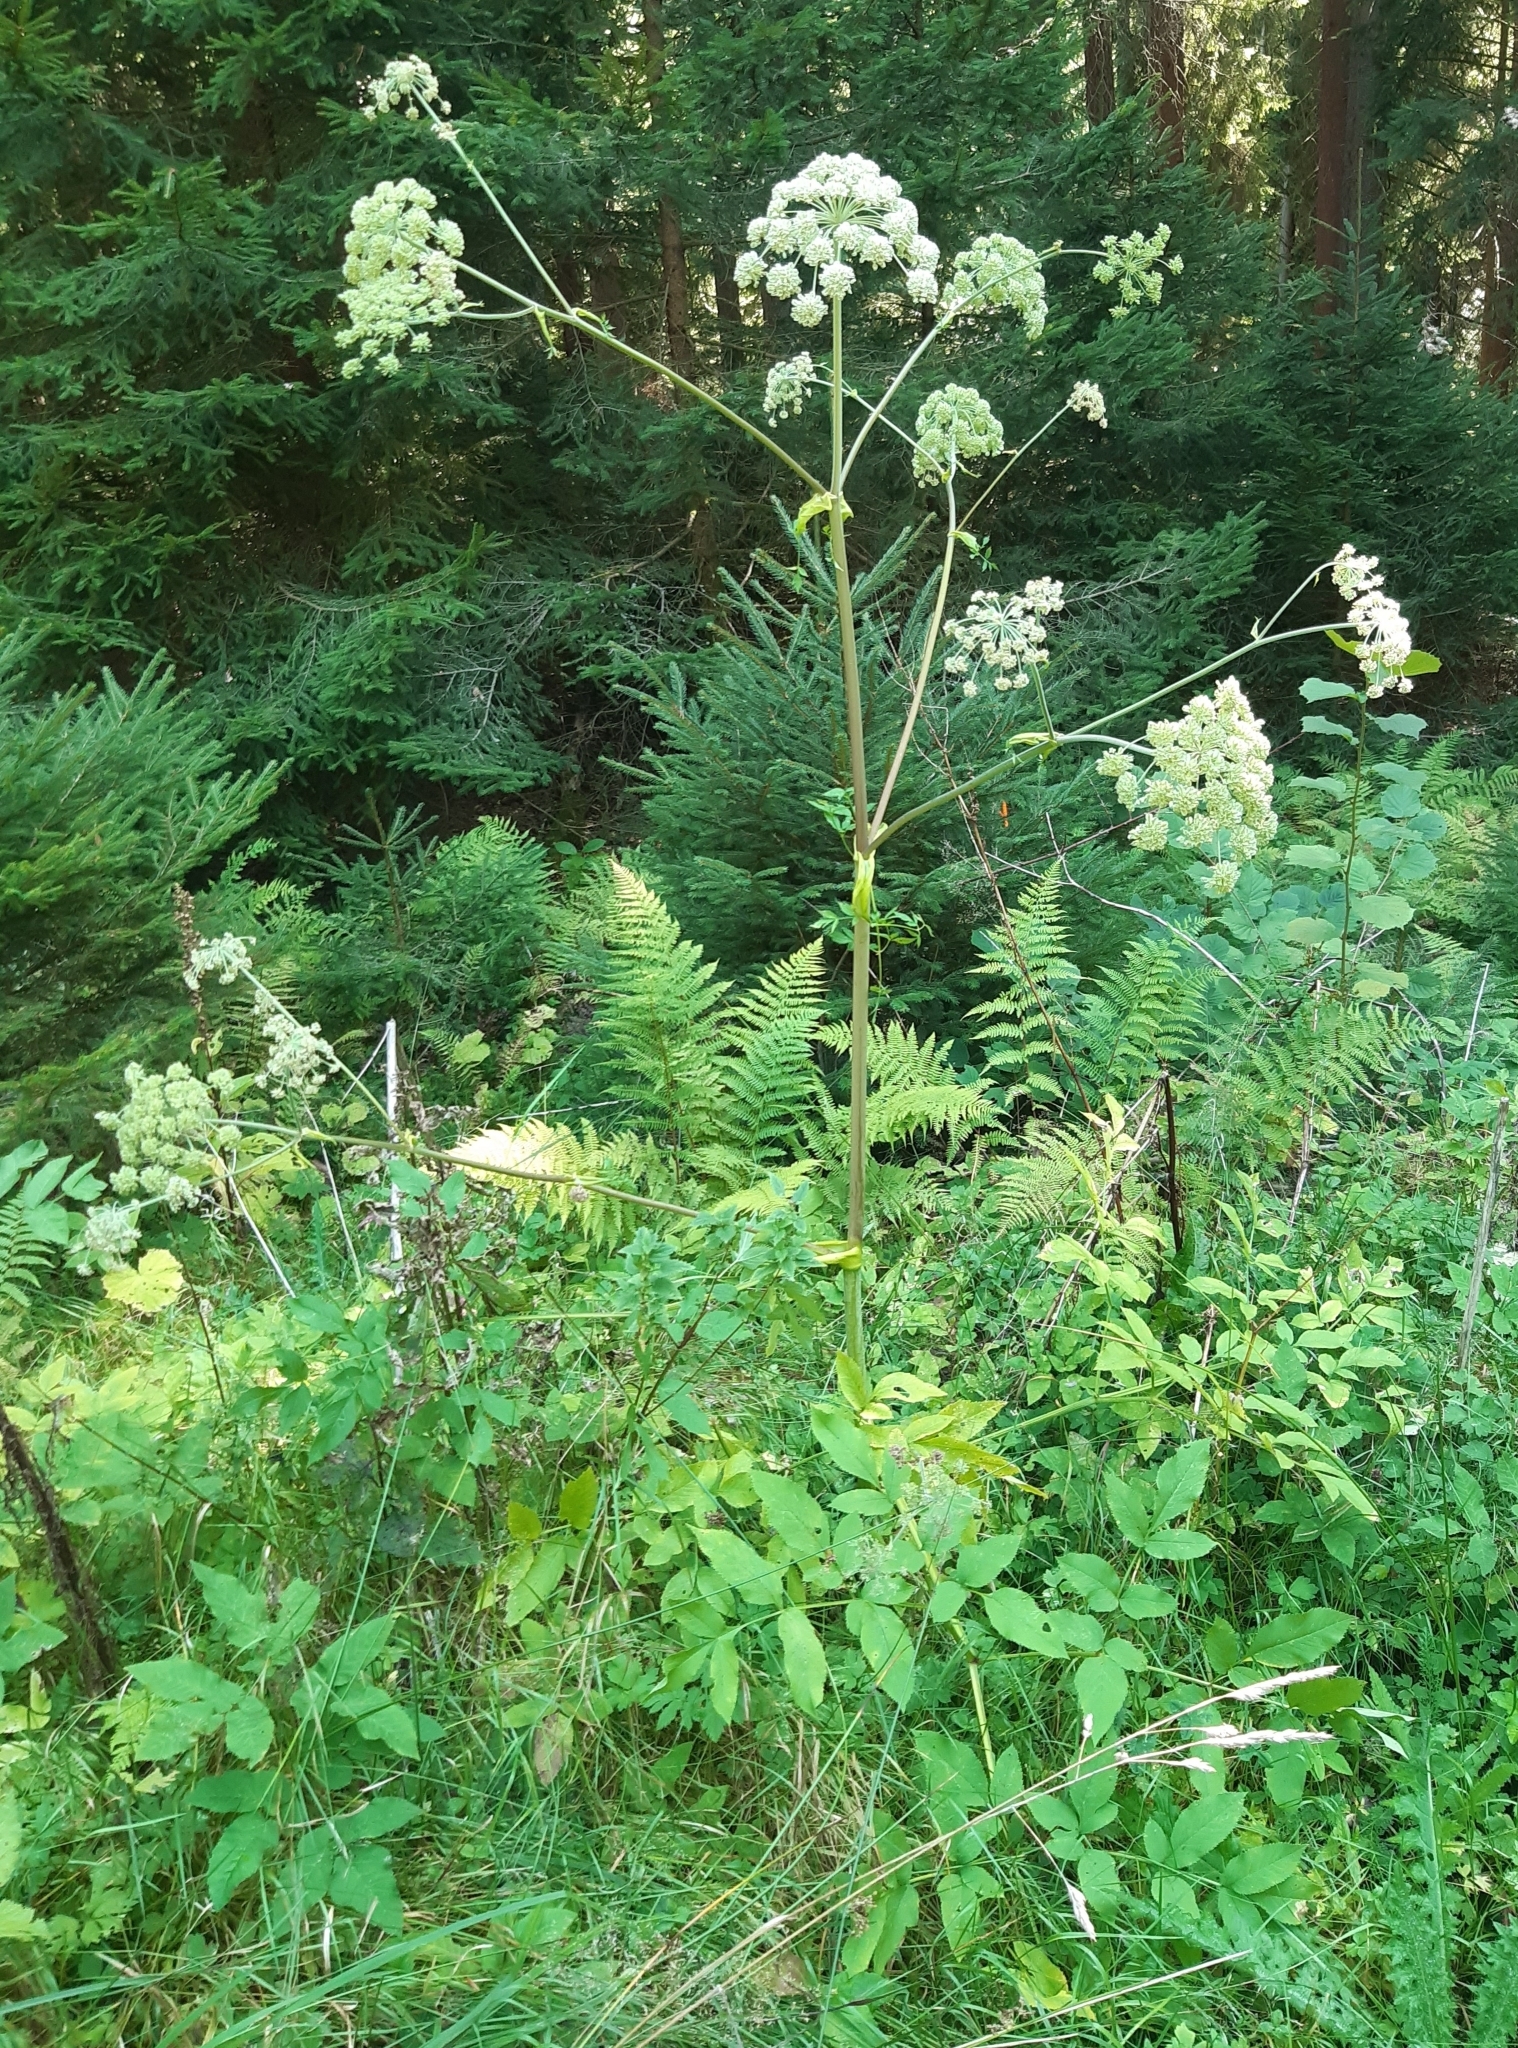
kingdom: Plantae
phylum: Tracheophyta
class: Magnoliopsida
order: Apiales
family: Apiaceae
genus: Angelica
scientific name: Angelica sylvestris
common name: Wild angelica
